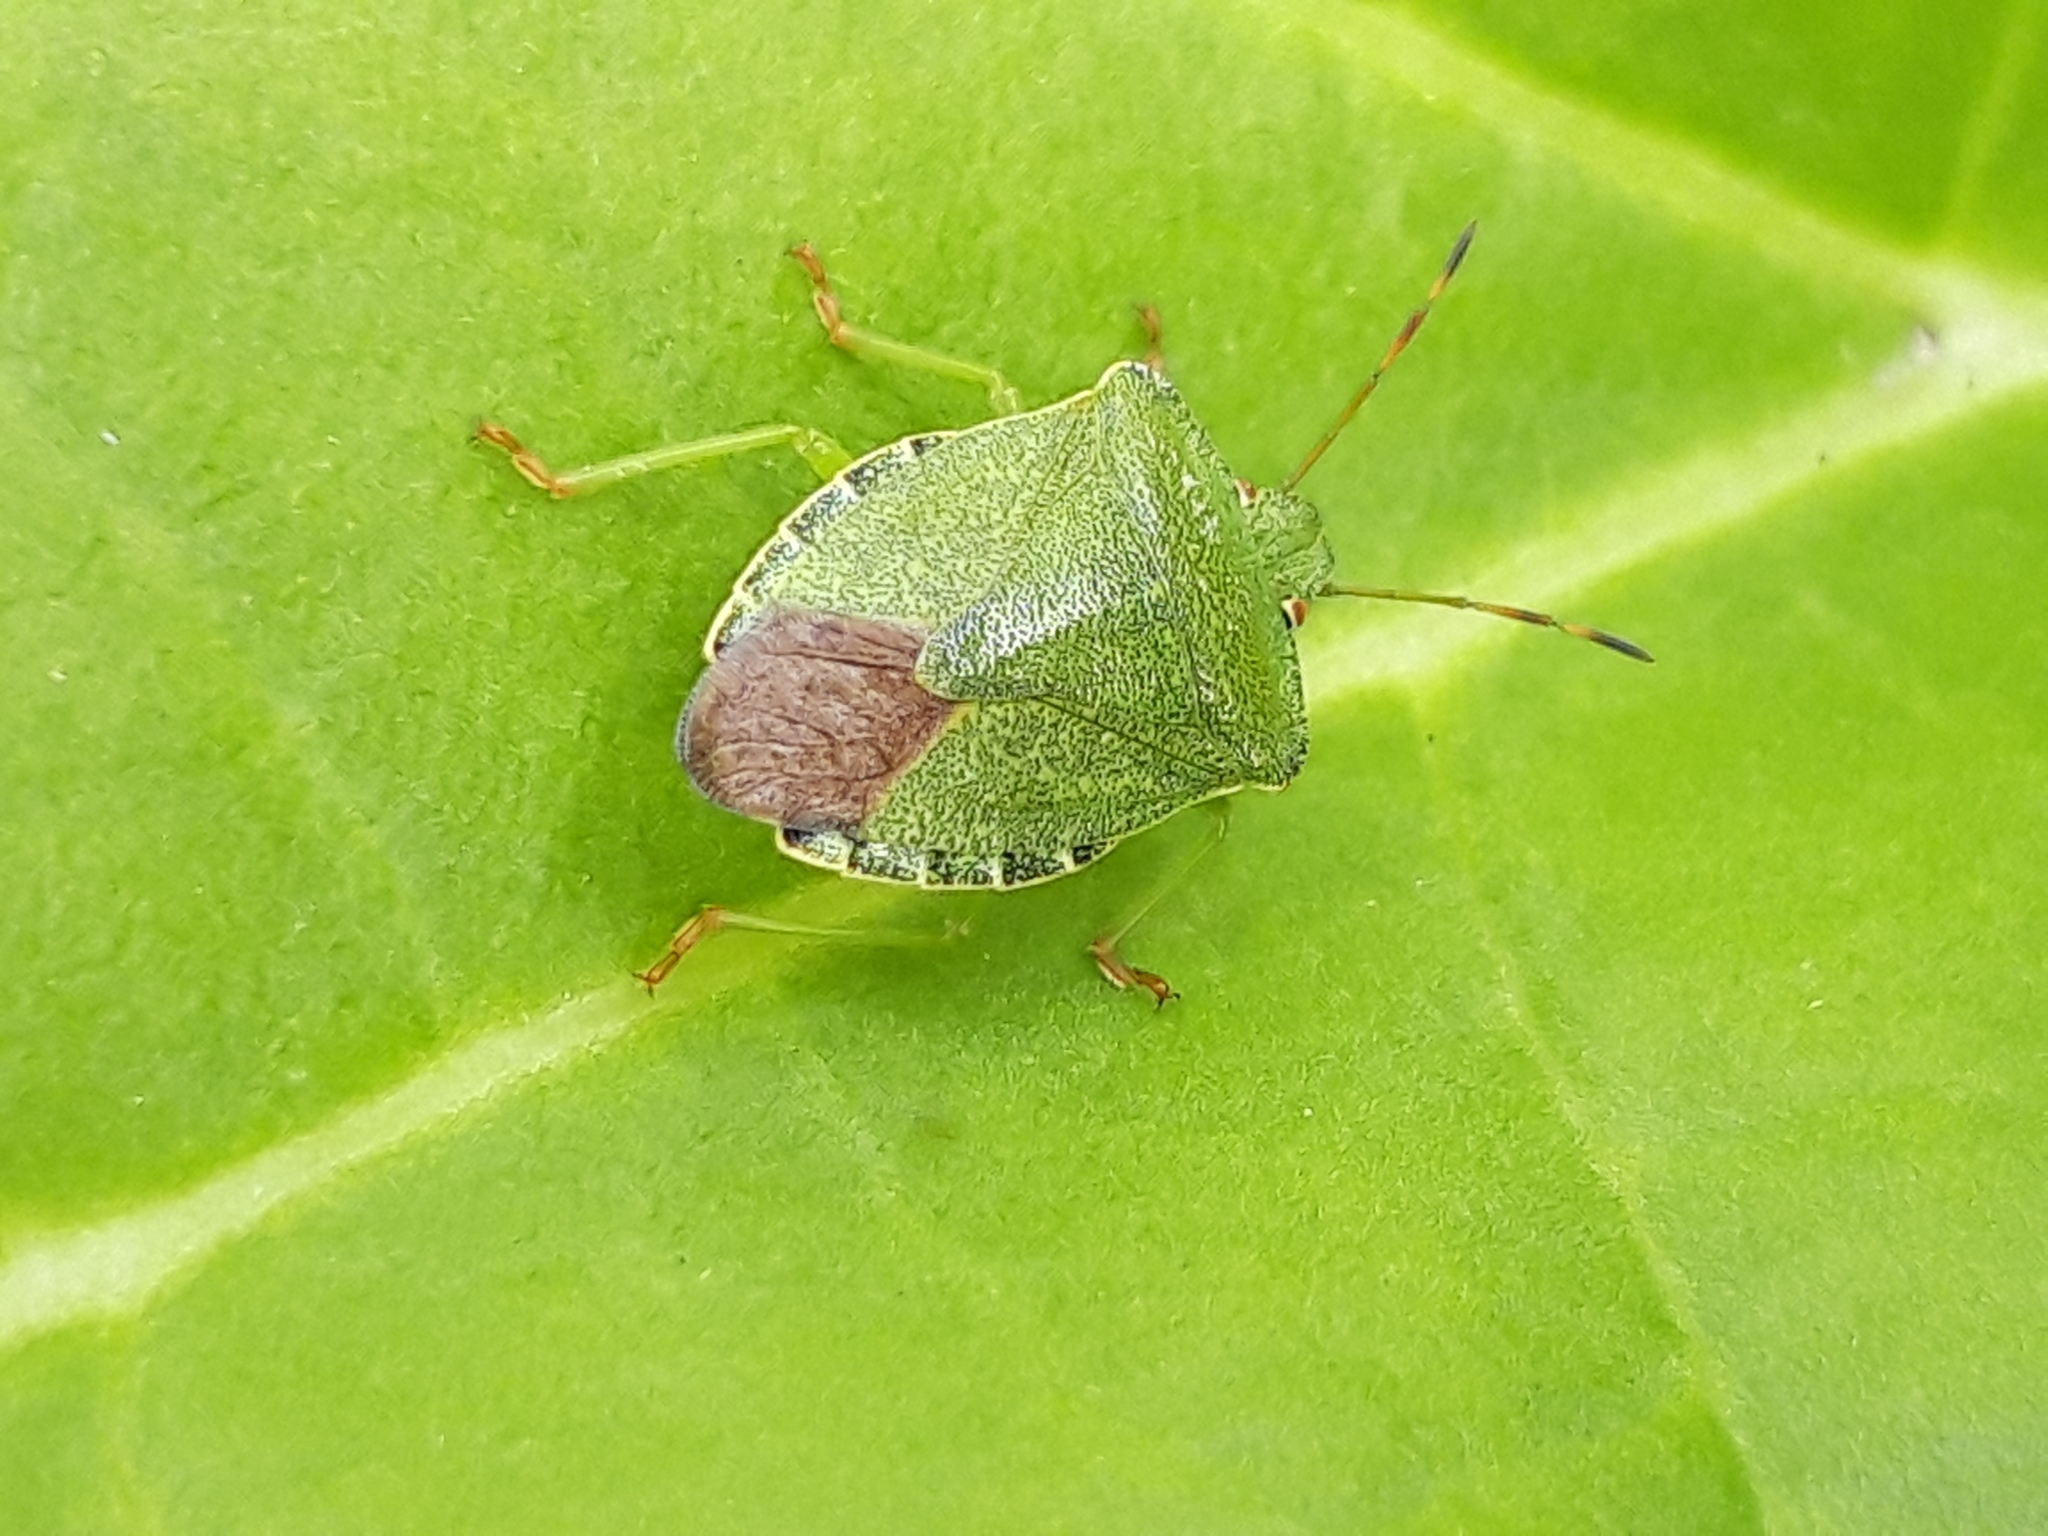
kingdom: Animalia
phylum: Arthropoda
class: Insecta
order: Hemiptera
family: Pentatomidae
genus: Palomena
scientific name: Palomena prasina
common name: Green shieldbug
